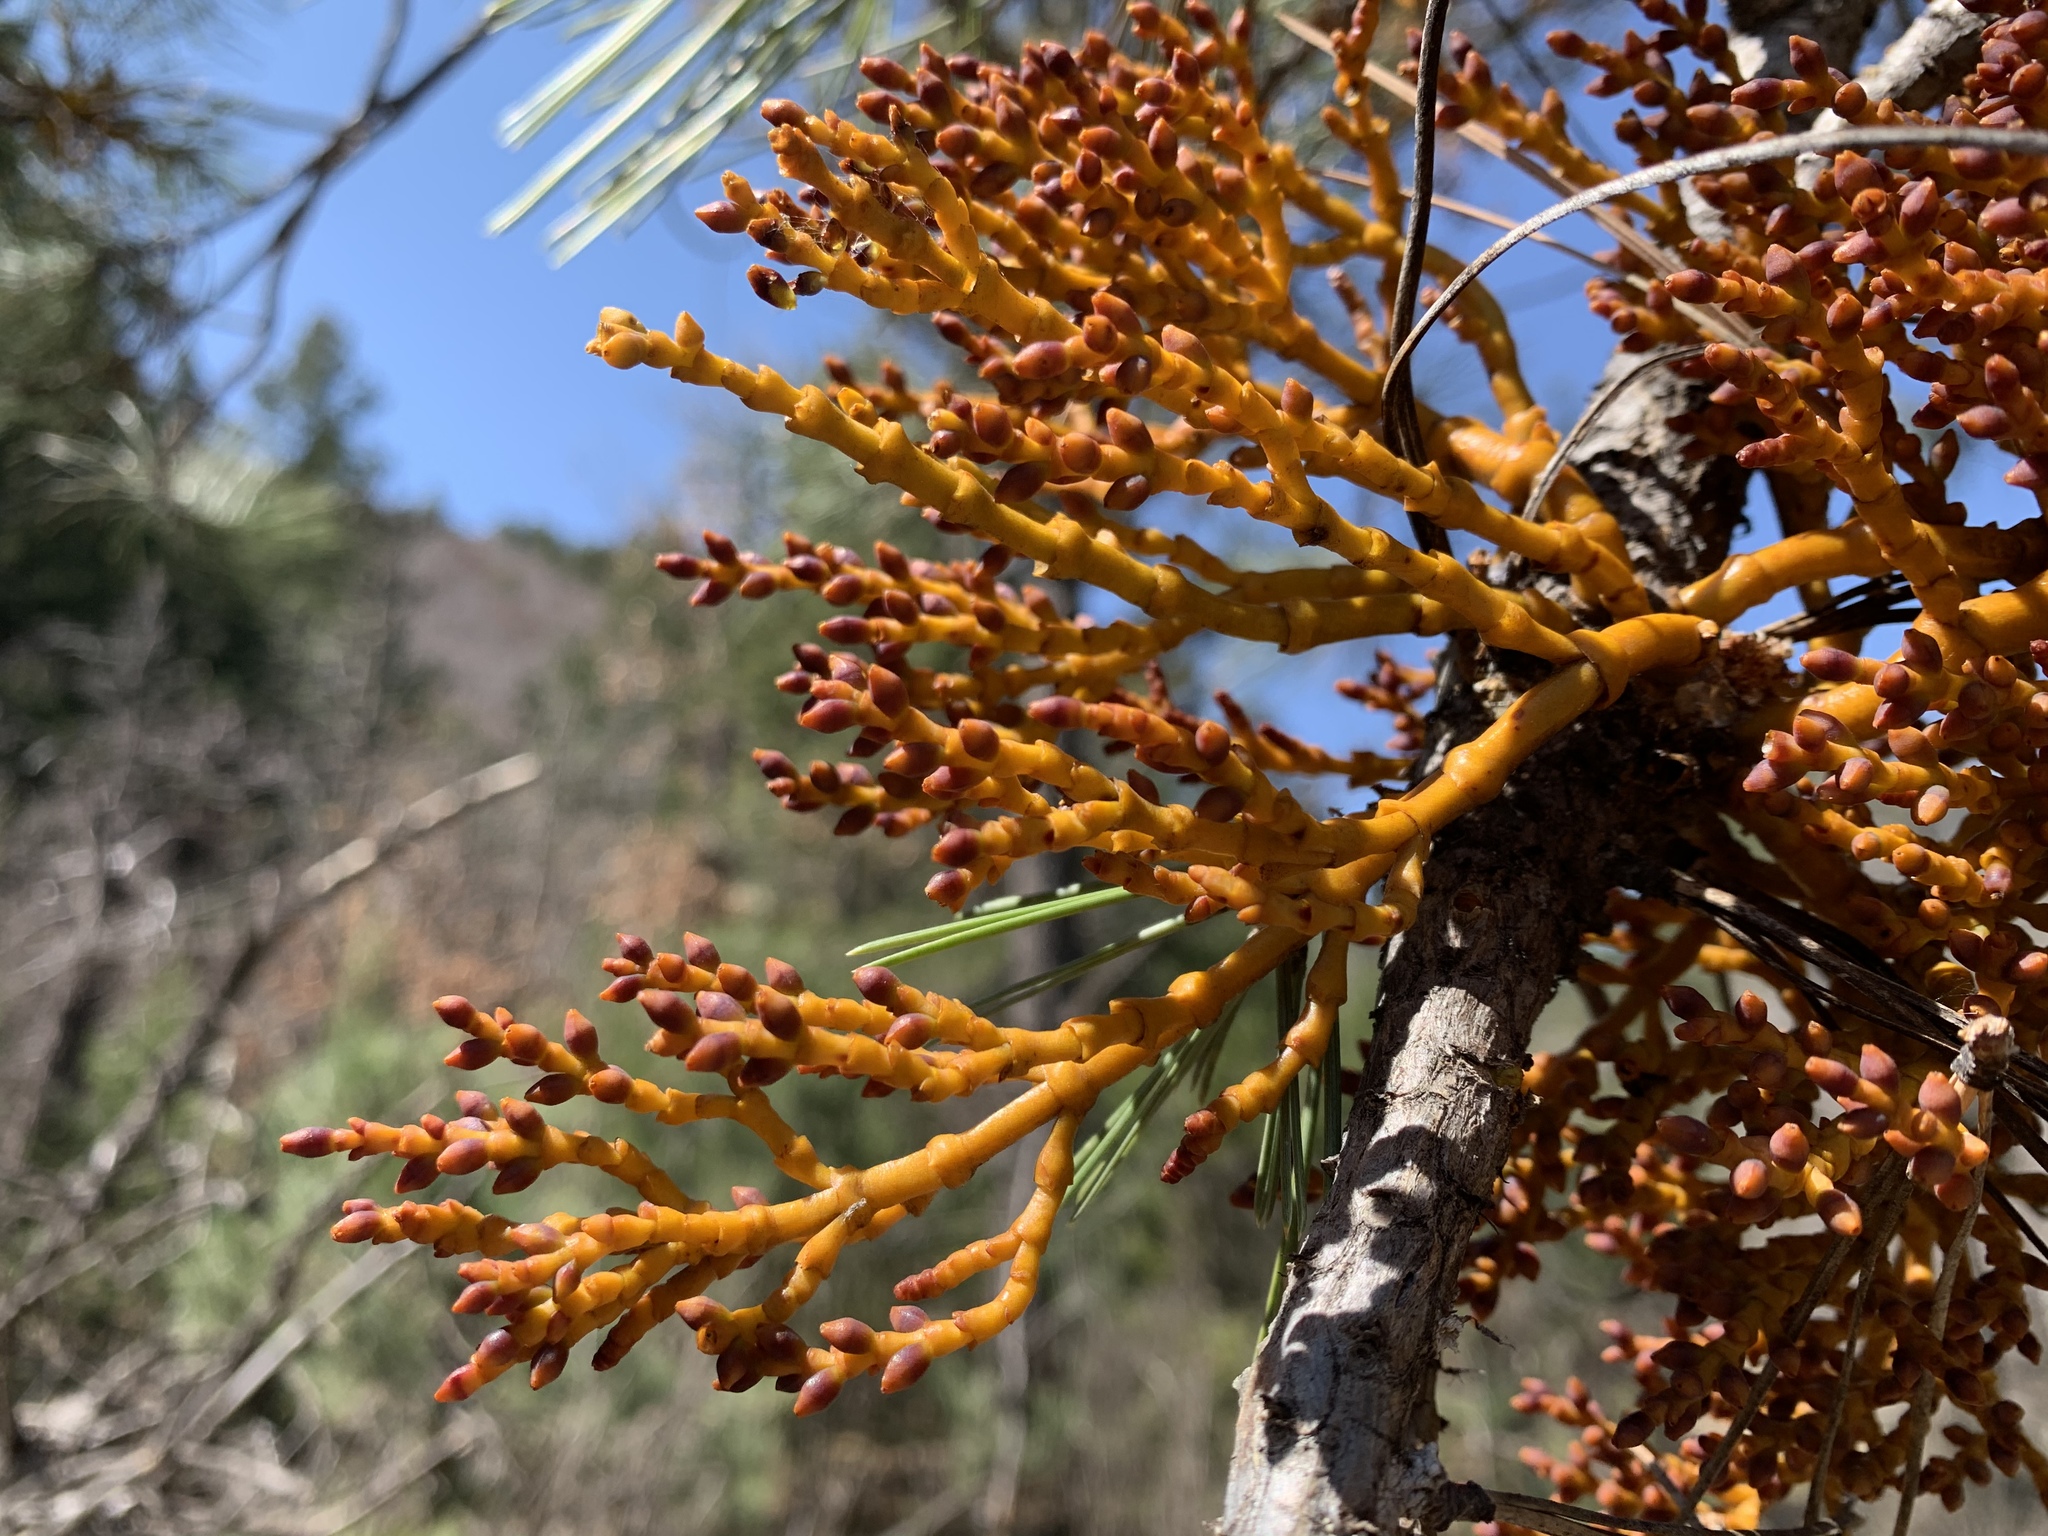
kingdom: Plantae
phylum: Tracheophyta
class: Magnoliopsida
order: Santalales
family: Viscaceae
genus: Arceuthobium
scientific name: Arceuthobium vaginatum
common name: Southwestern dwarf-mistletoe
